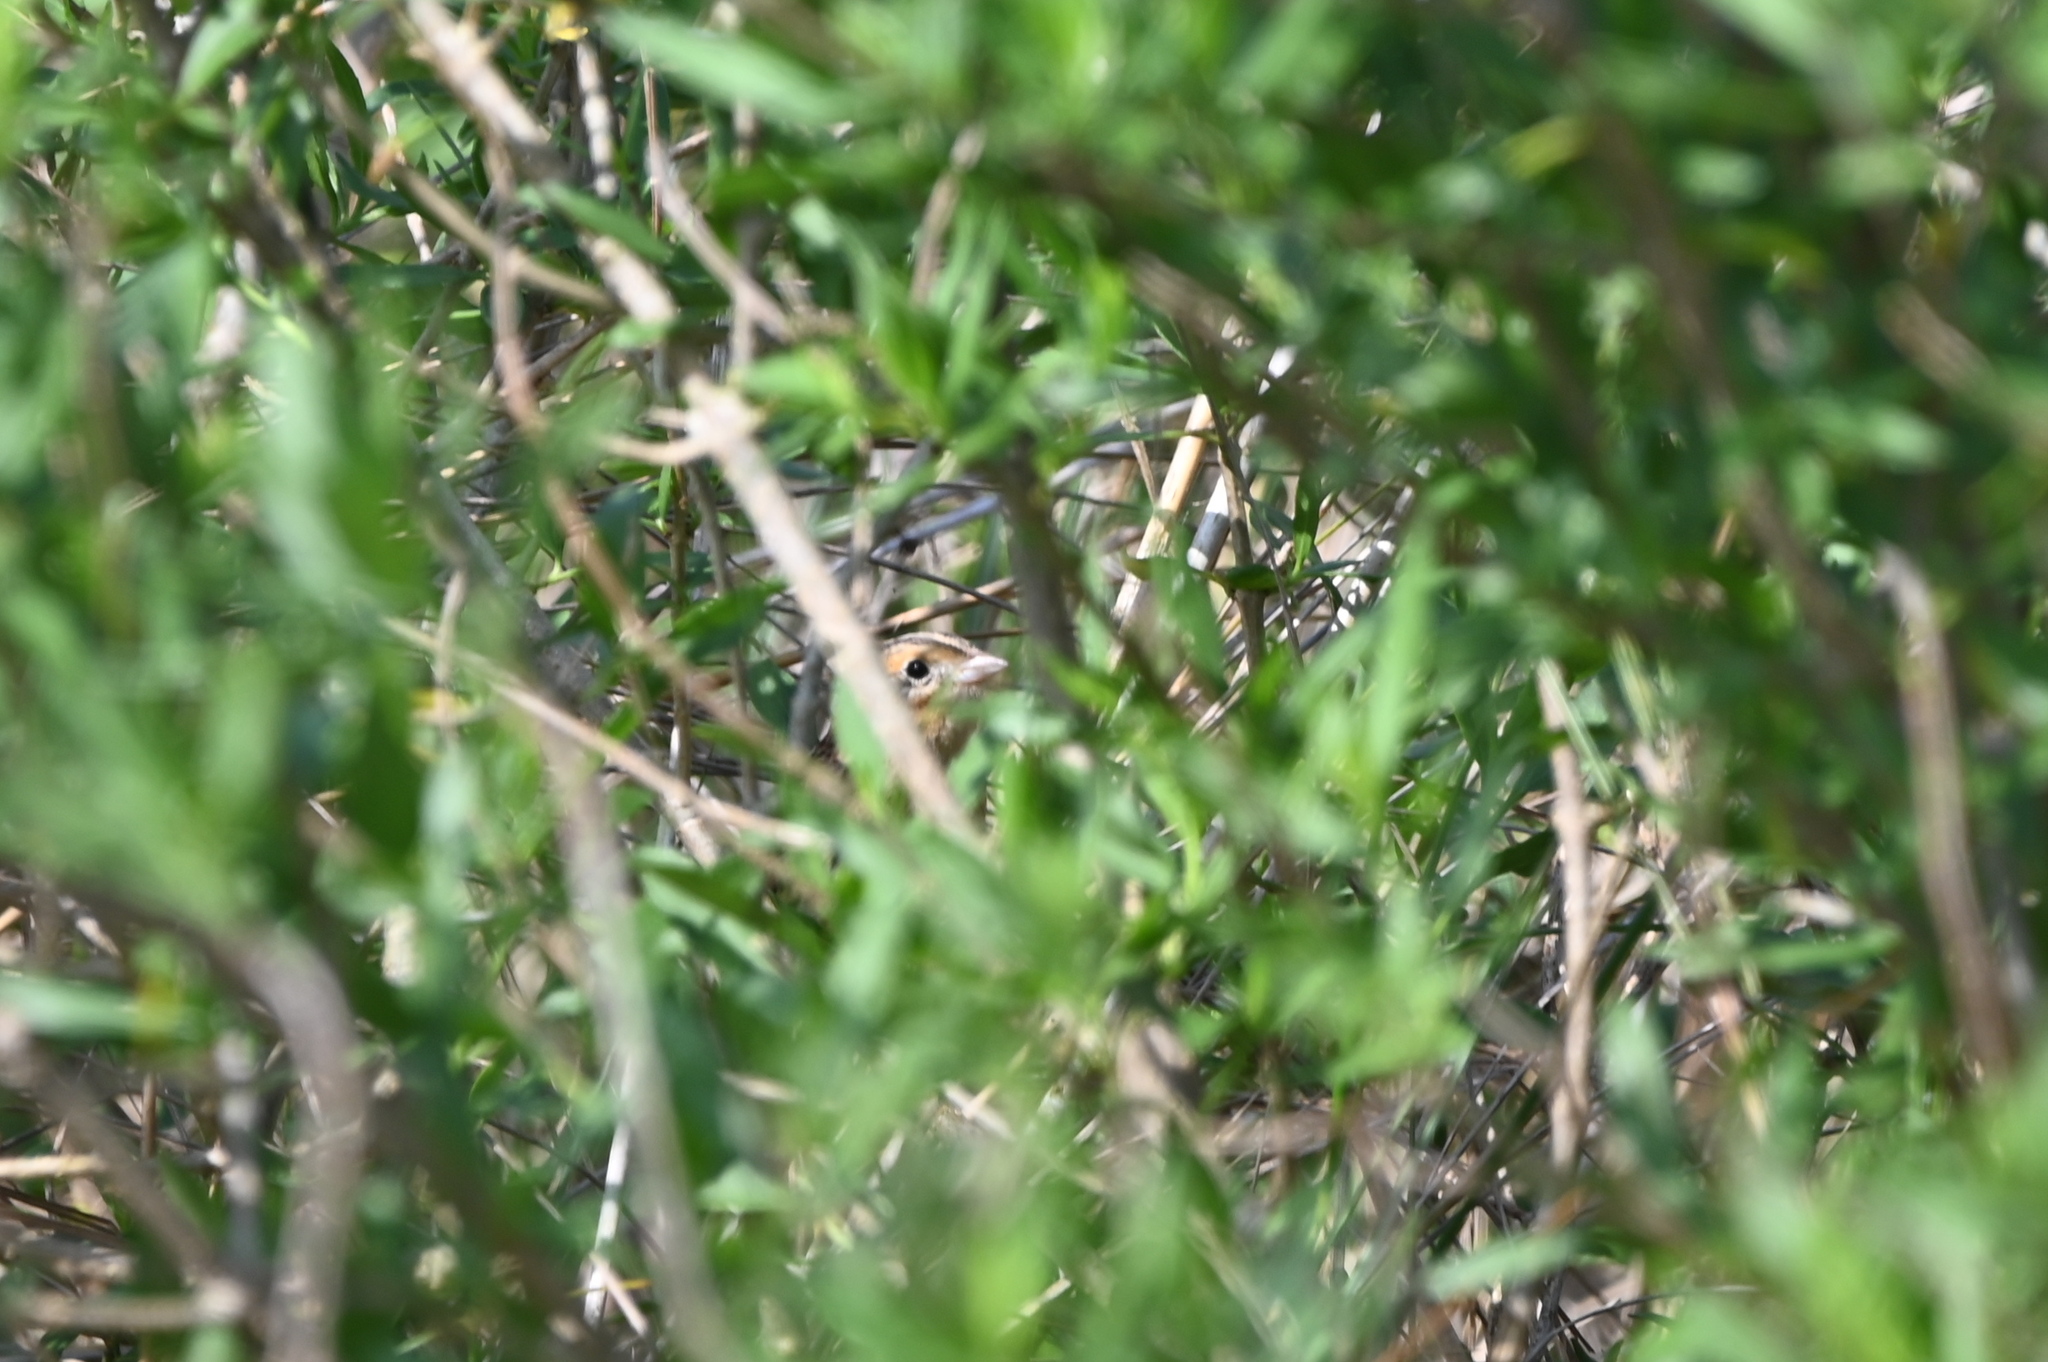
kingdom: Animalia
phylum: Chordata
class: Aves
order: Passeriformes
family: Passerellidae
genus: Ammospiza
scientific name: Ammospiza leconteii
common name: Le conte's sparrow
